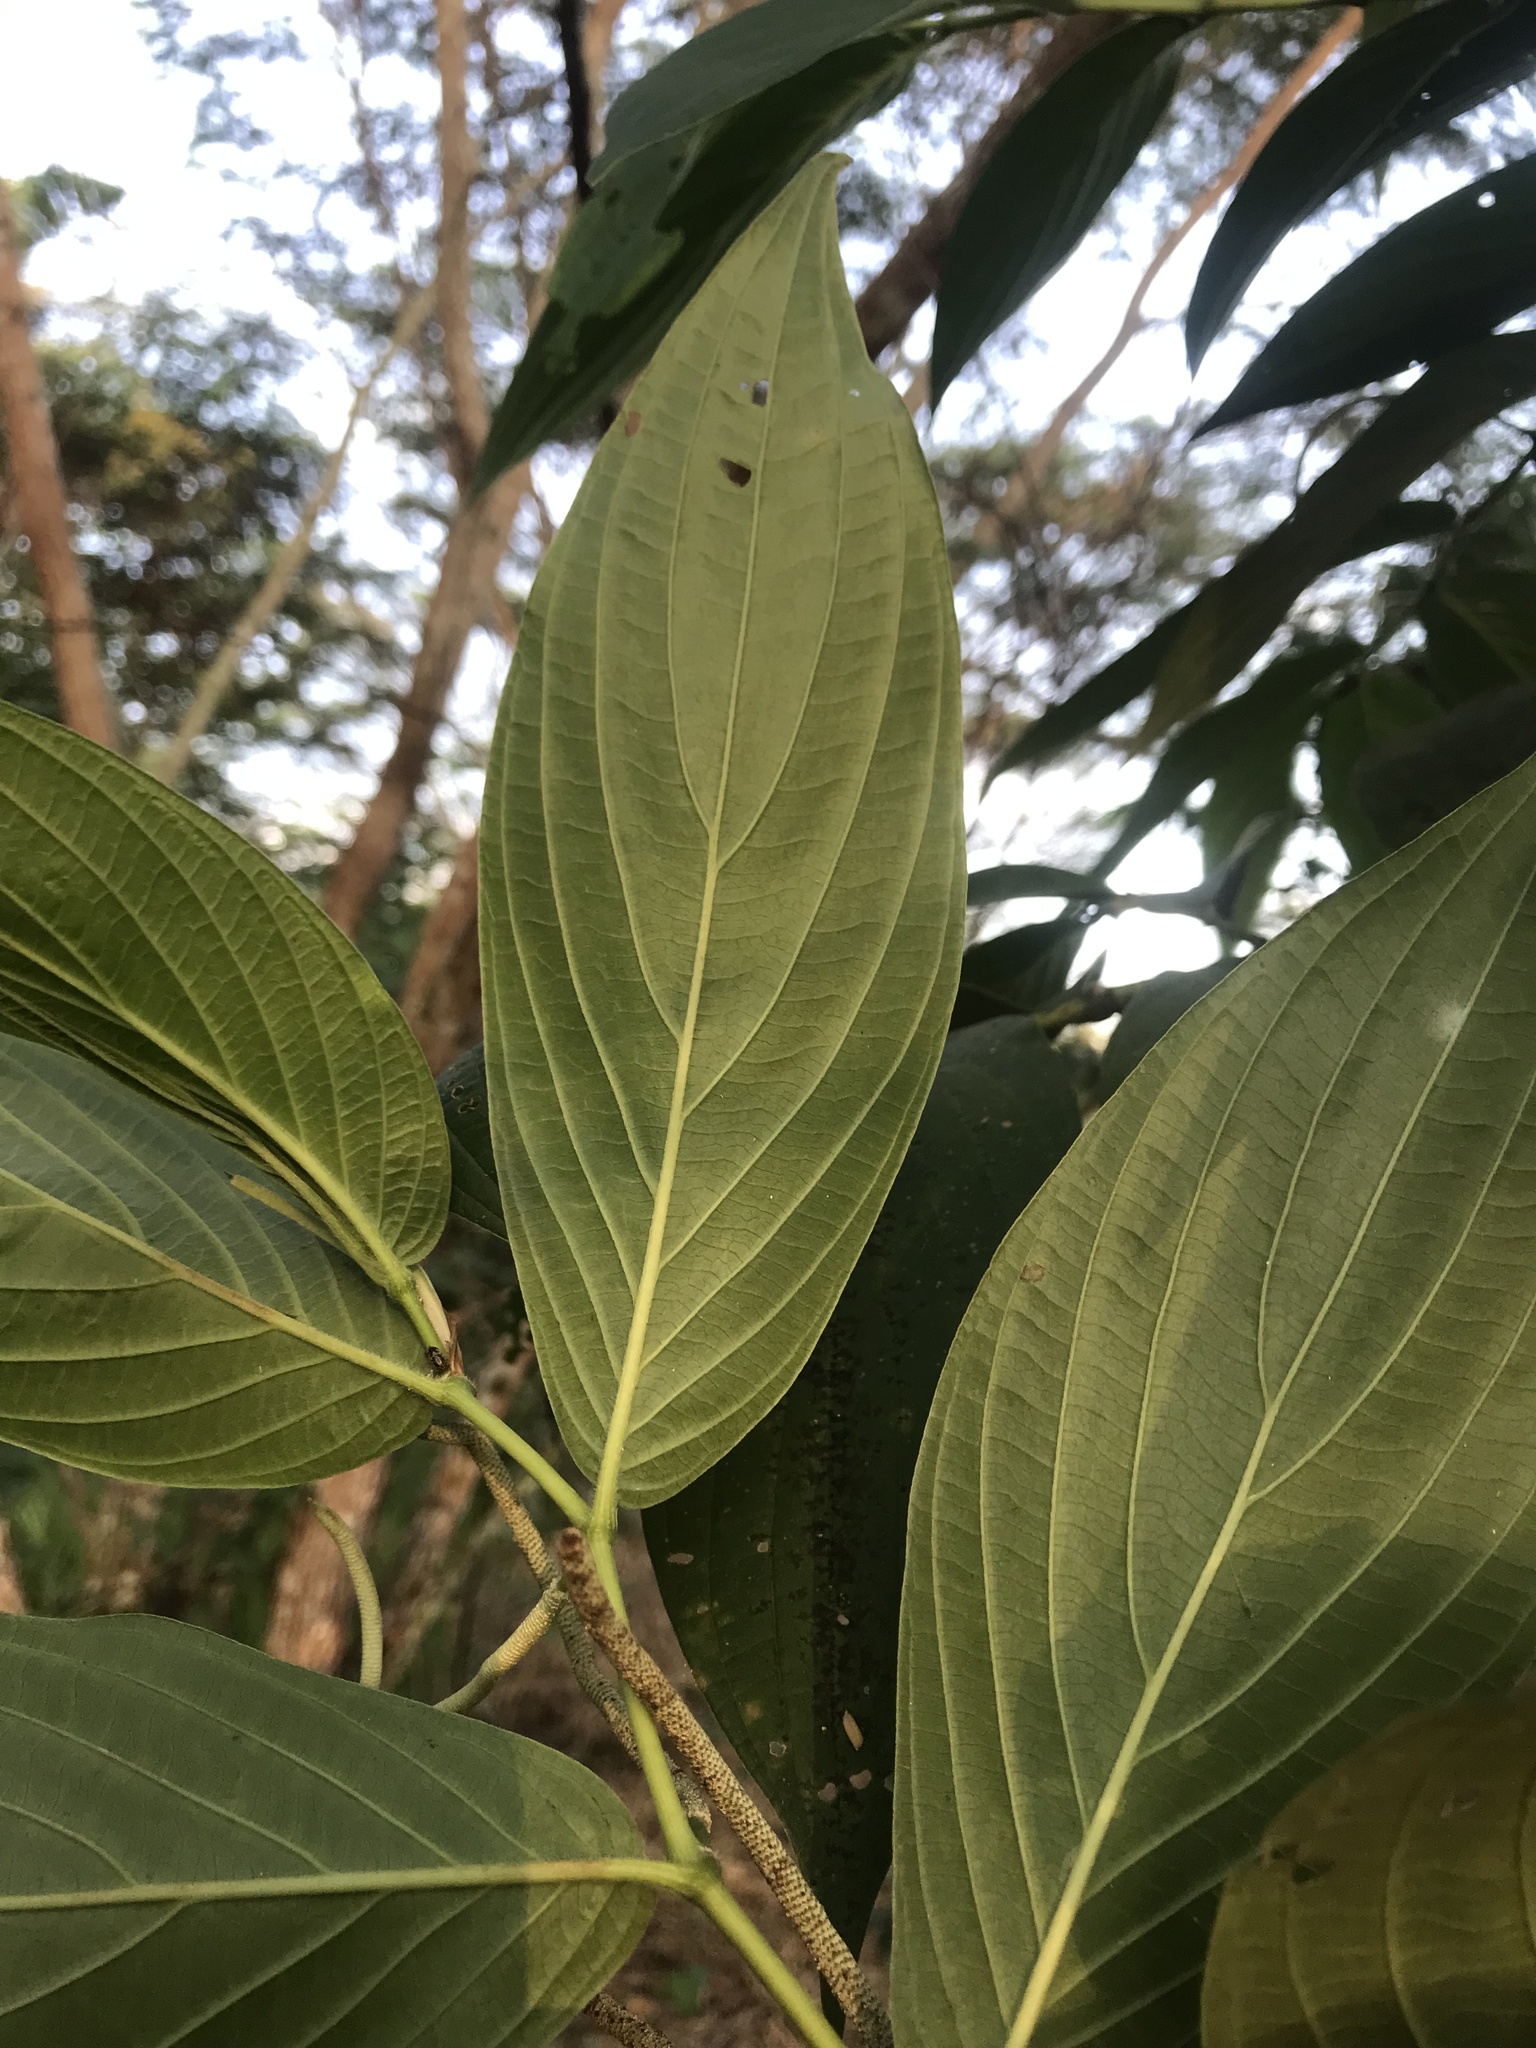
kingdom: Plantae
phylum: Tracheophyta
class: Magnoliopsida
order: Piperales
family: Piperaceae
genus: Piper
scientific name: Piper aduncum
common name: Spiked pepper
